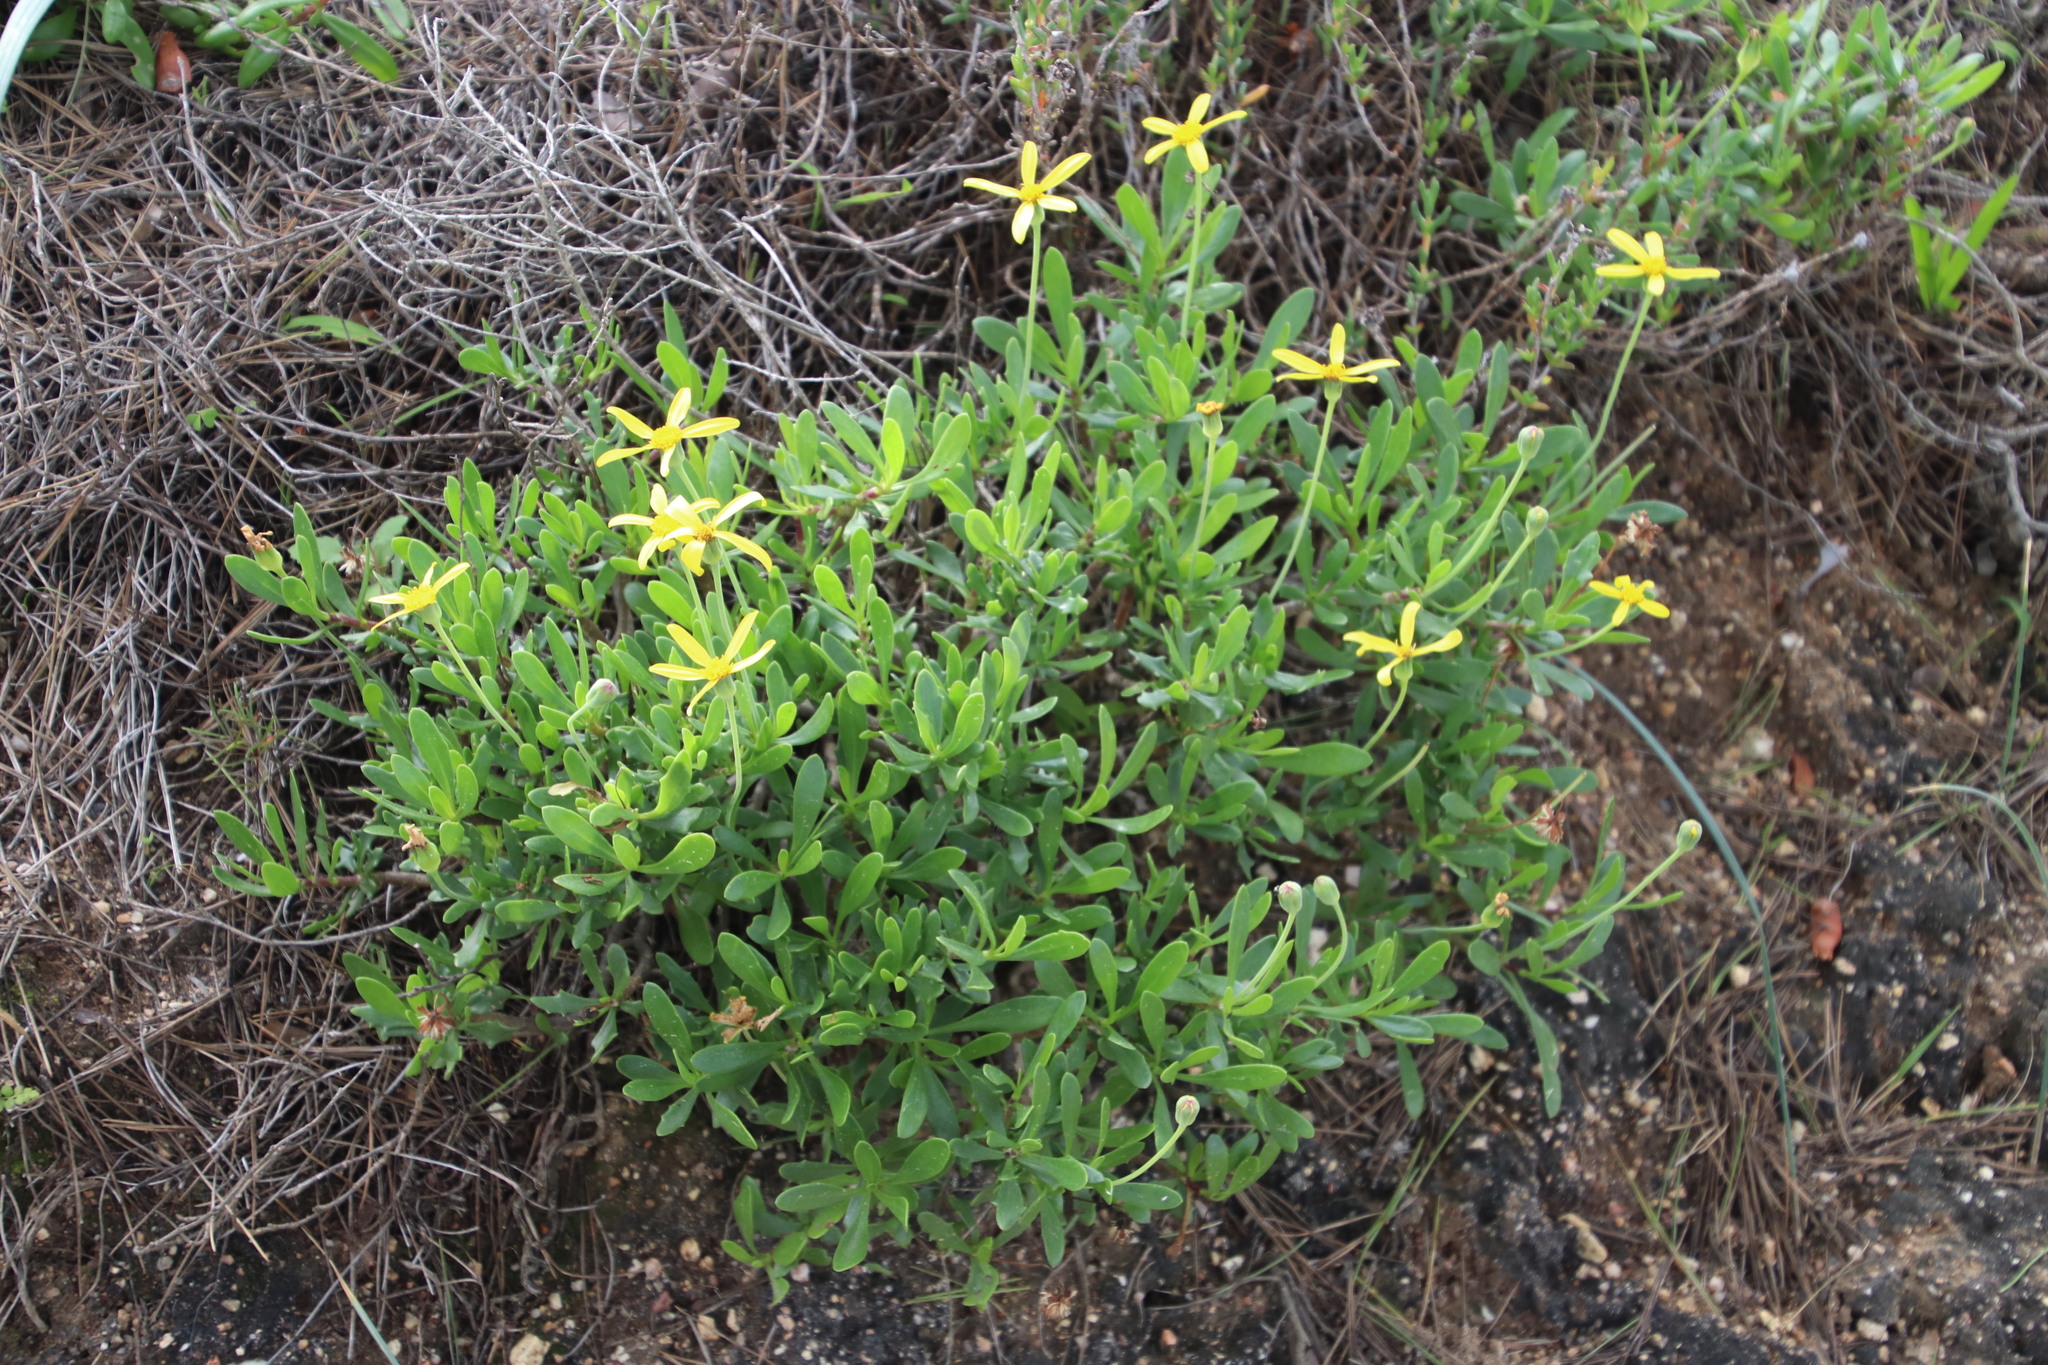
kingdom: Plantae
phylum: Tracheophyta
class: Magnoliopsida
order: Asterales
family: Asteraceae
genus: Othonna
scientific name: Othonna arborescens
